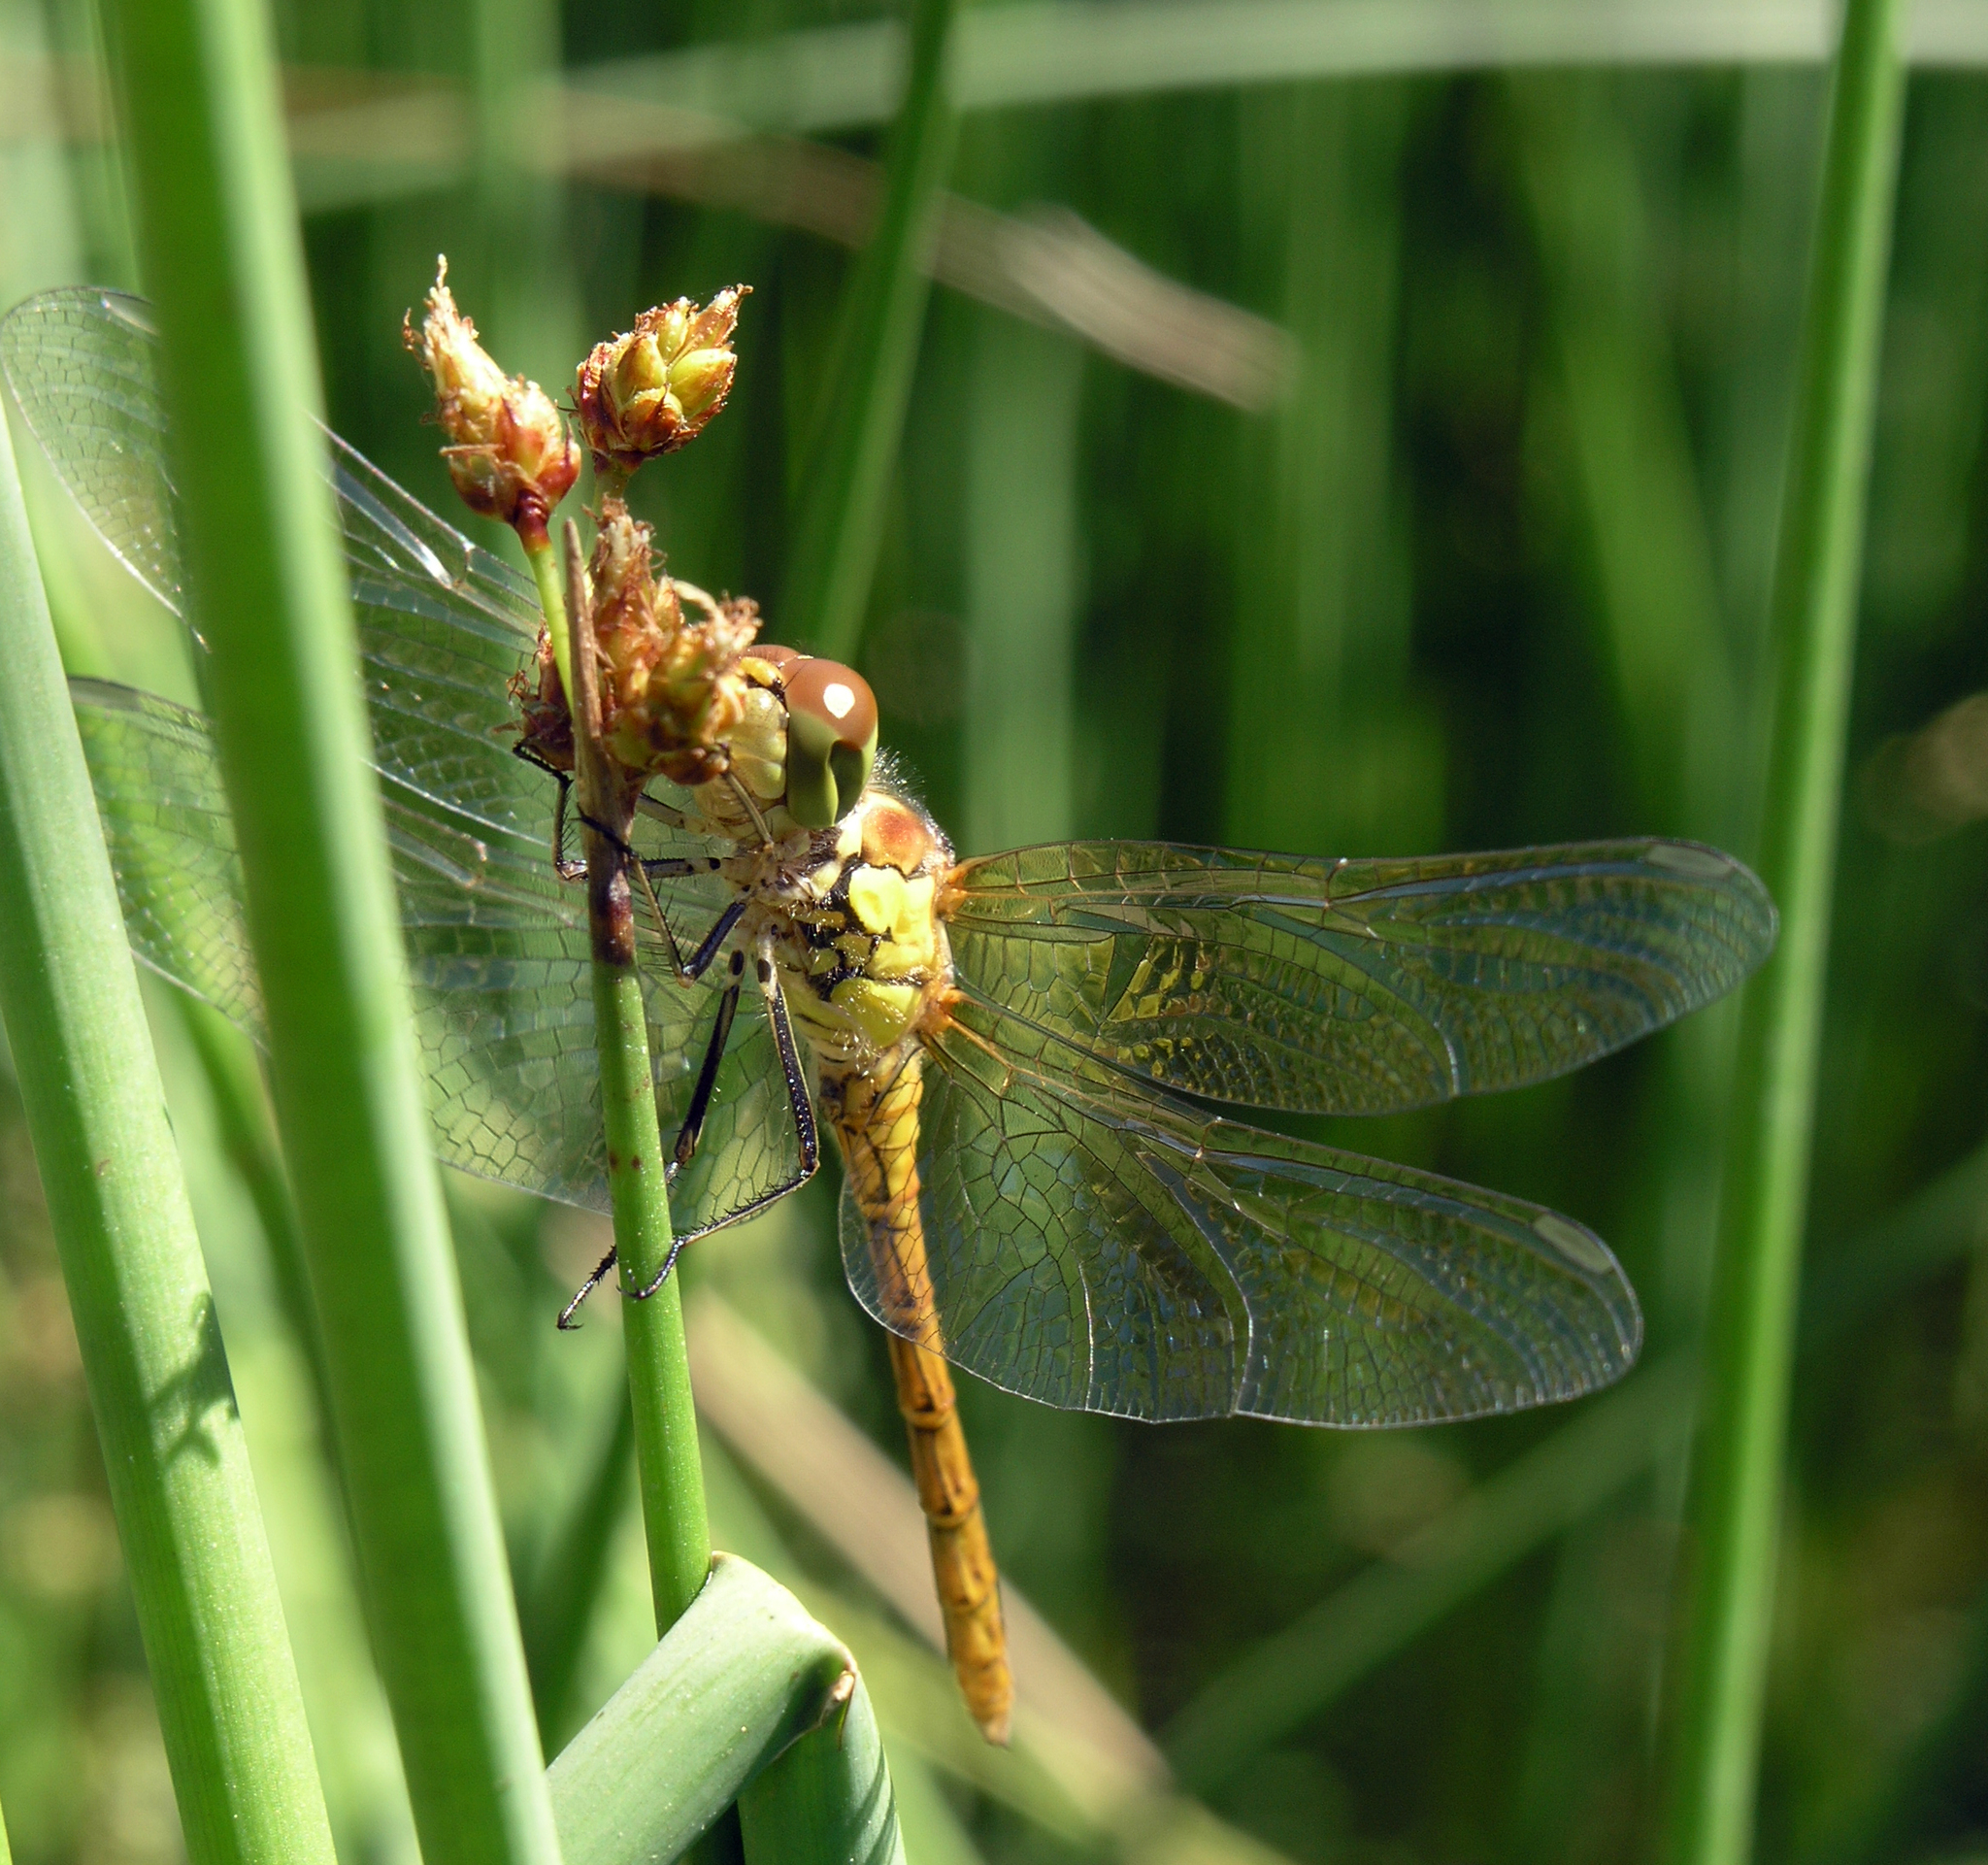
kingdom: Animalia
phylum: Arthropoda
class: Insecta
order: Odonata
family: Libellulidae
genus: Sympetrum
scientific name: Sympetrum striolatum
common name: Common darter
